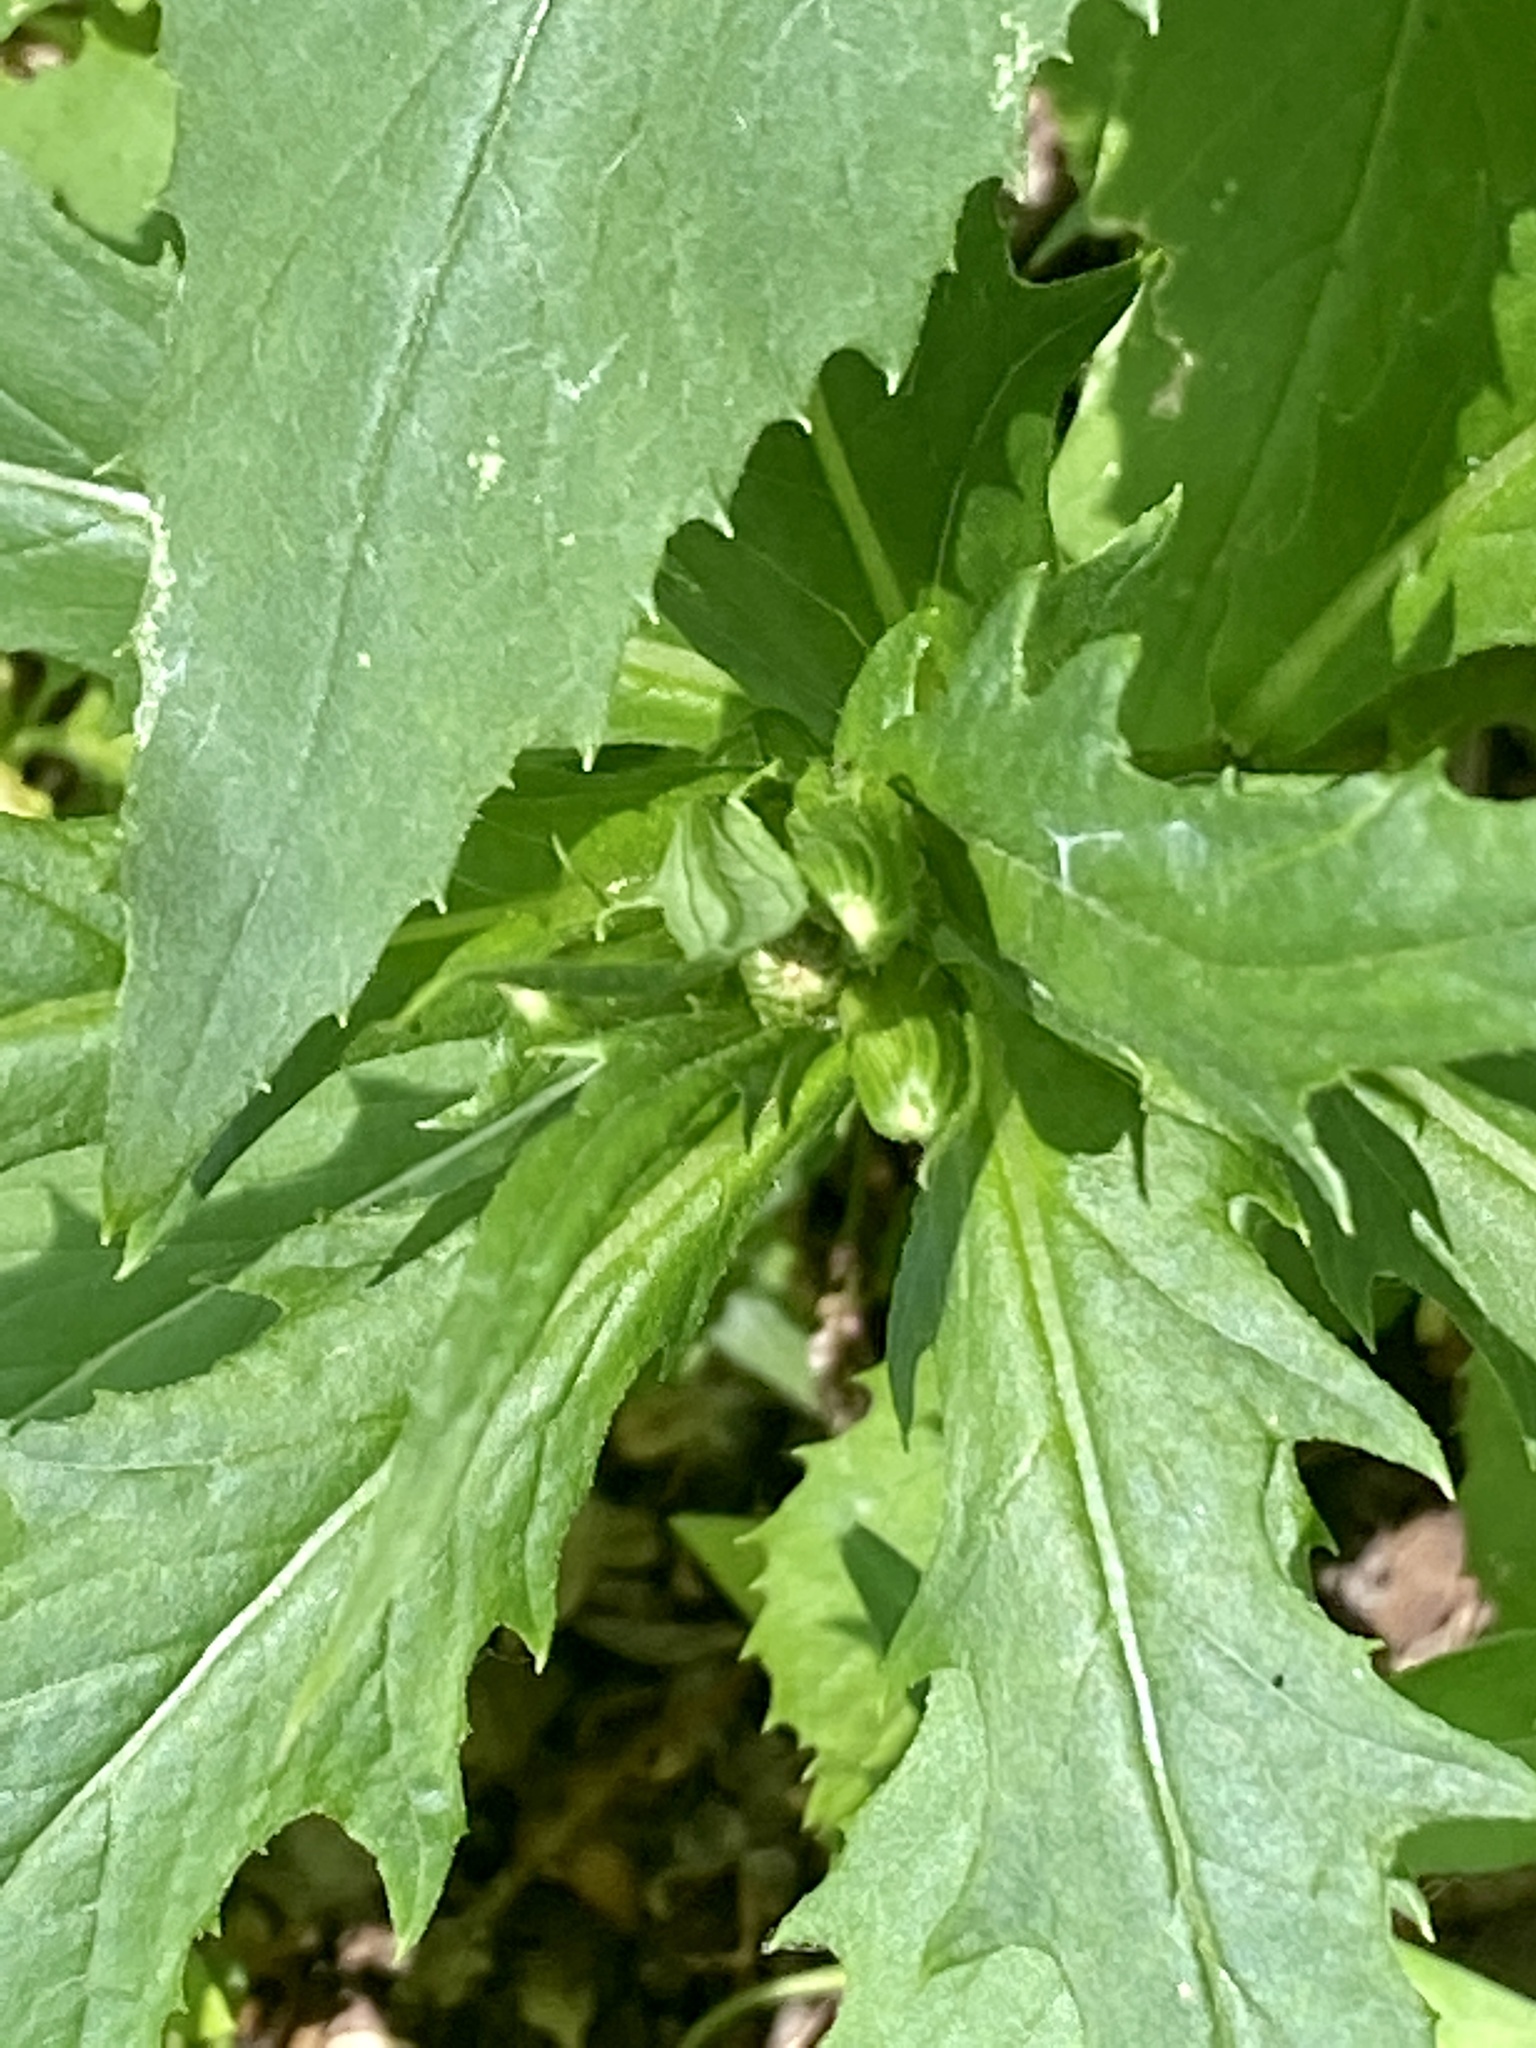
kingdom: Plantae
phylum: Tracheophyta
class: Magnoliopsida
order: Asterales
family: Asteraceae
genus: Erechtites
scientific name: Erechtites hieraciifolius
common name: American burnweed
